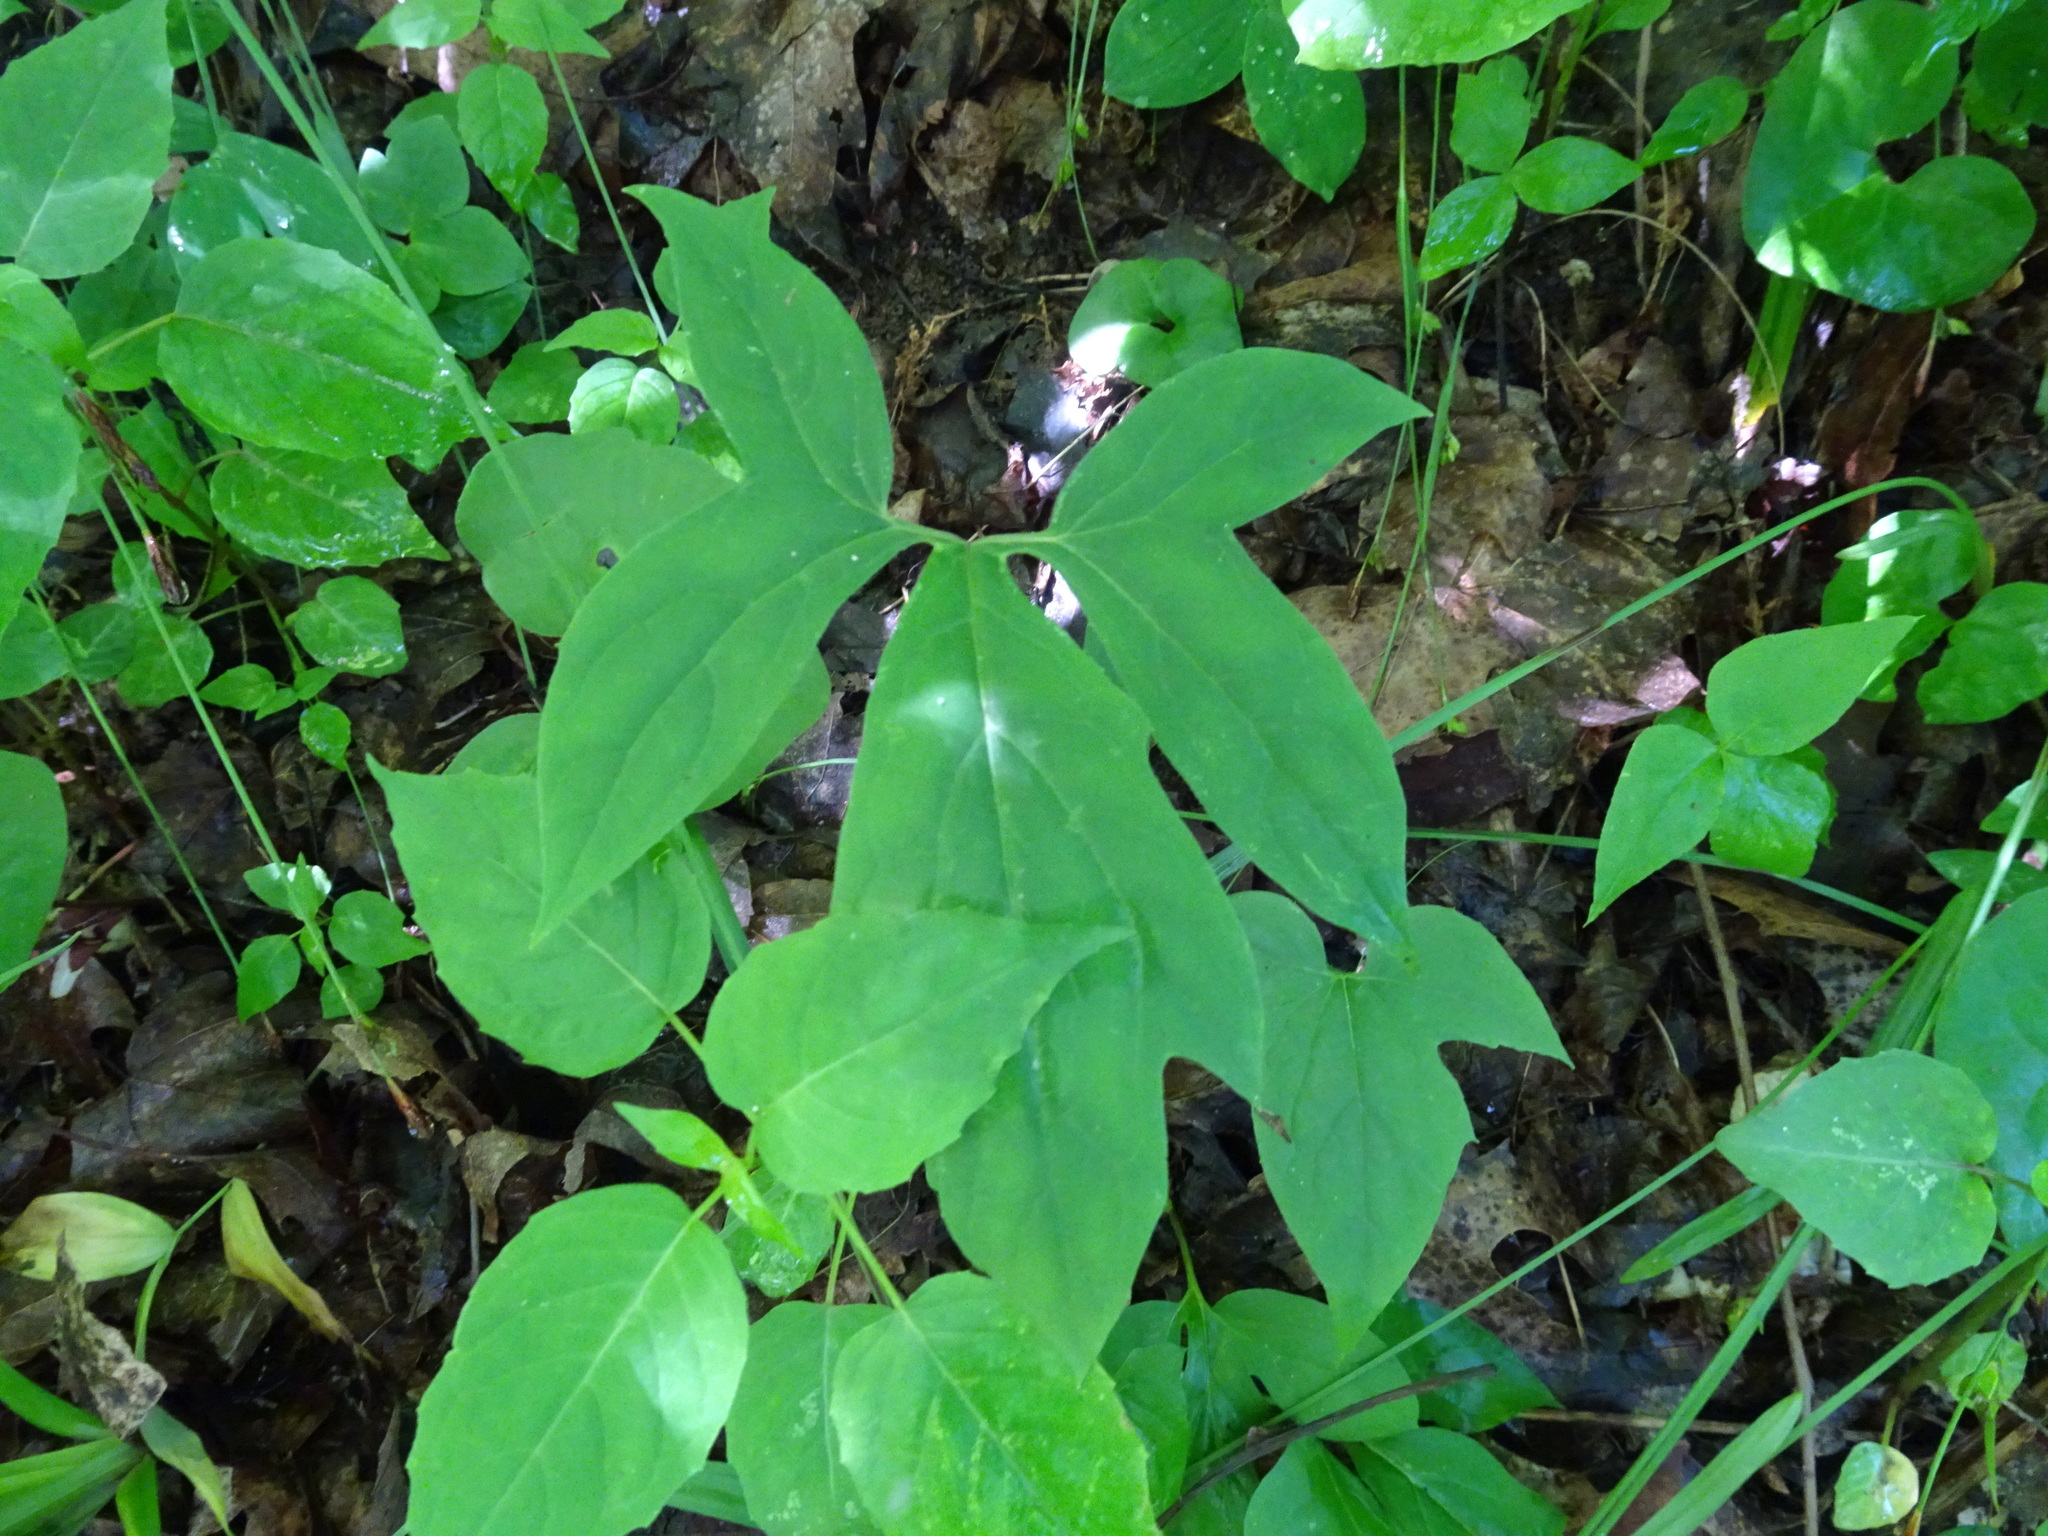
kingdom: Plantae
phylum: Tracheophyta
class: Magnoliopsida
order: Asterales
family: Asteraceae
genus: Nabalus
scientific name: Nabalus altissima
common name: Tall rattlesnakeroot
